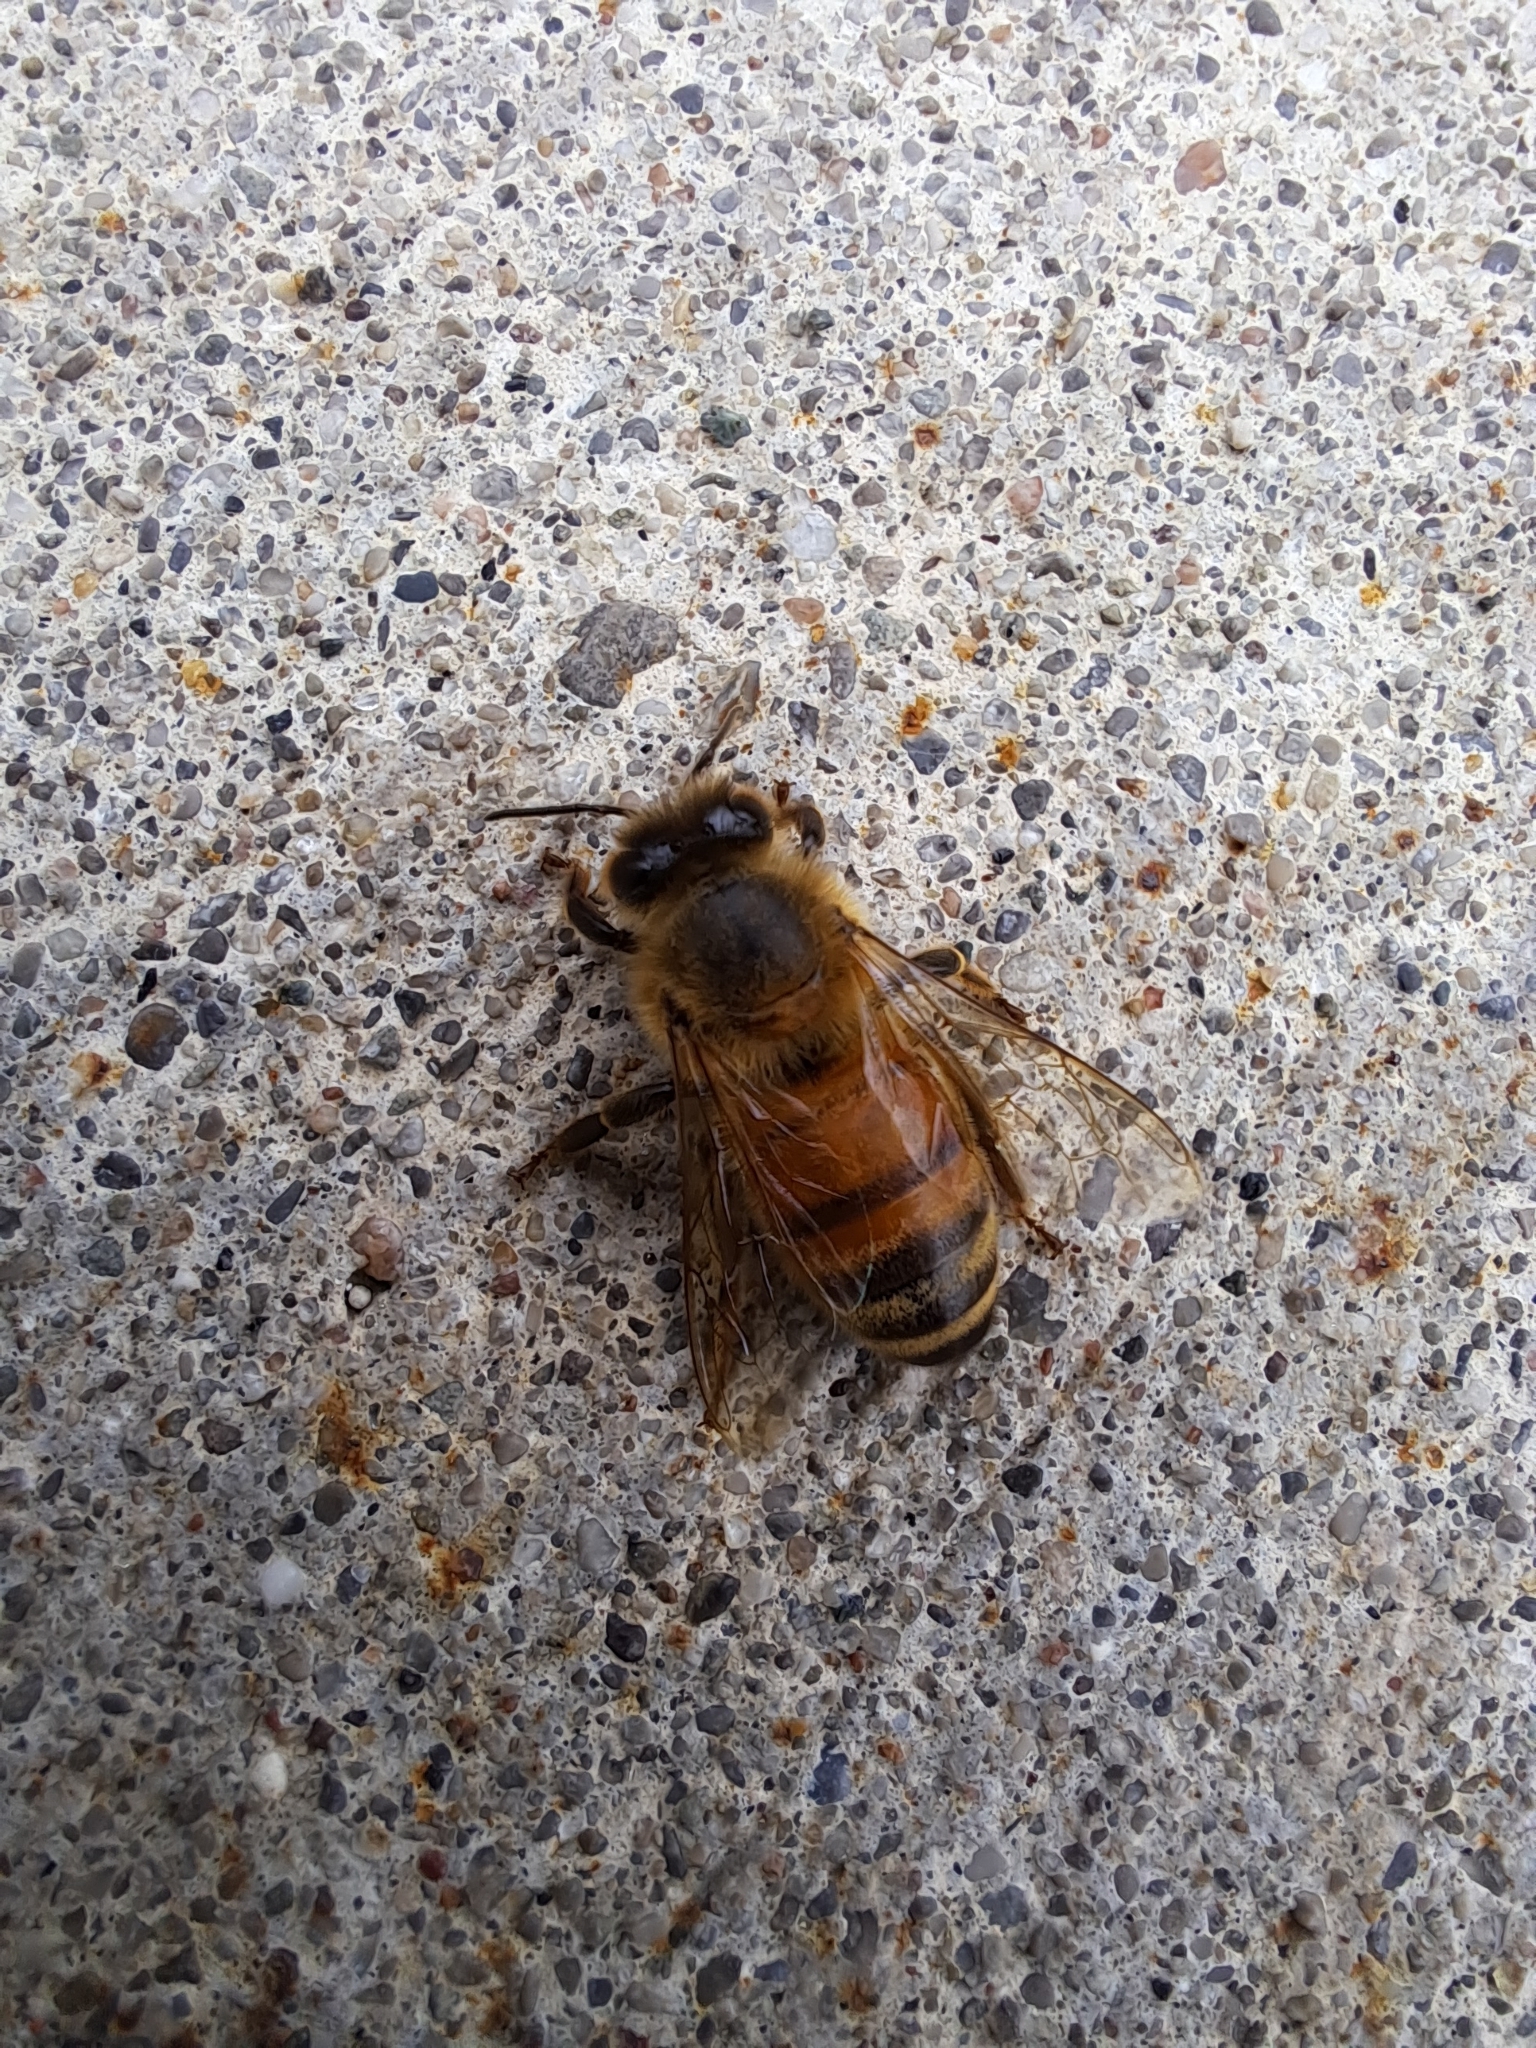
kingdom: Animalia
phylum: Arthropoda
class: Insecta
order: Hymenoptera
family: Apidae
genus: Apis
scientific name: Apis mellifera
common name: Honey bee
